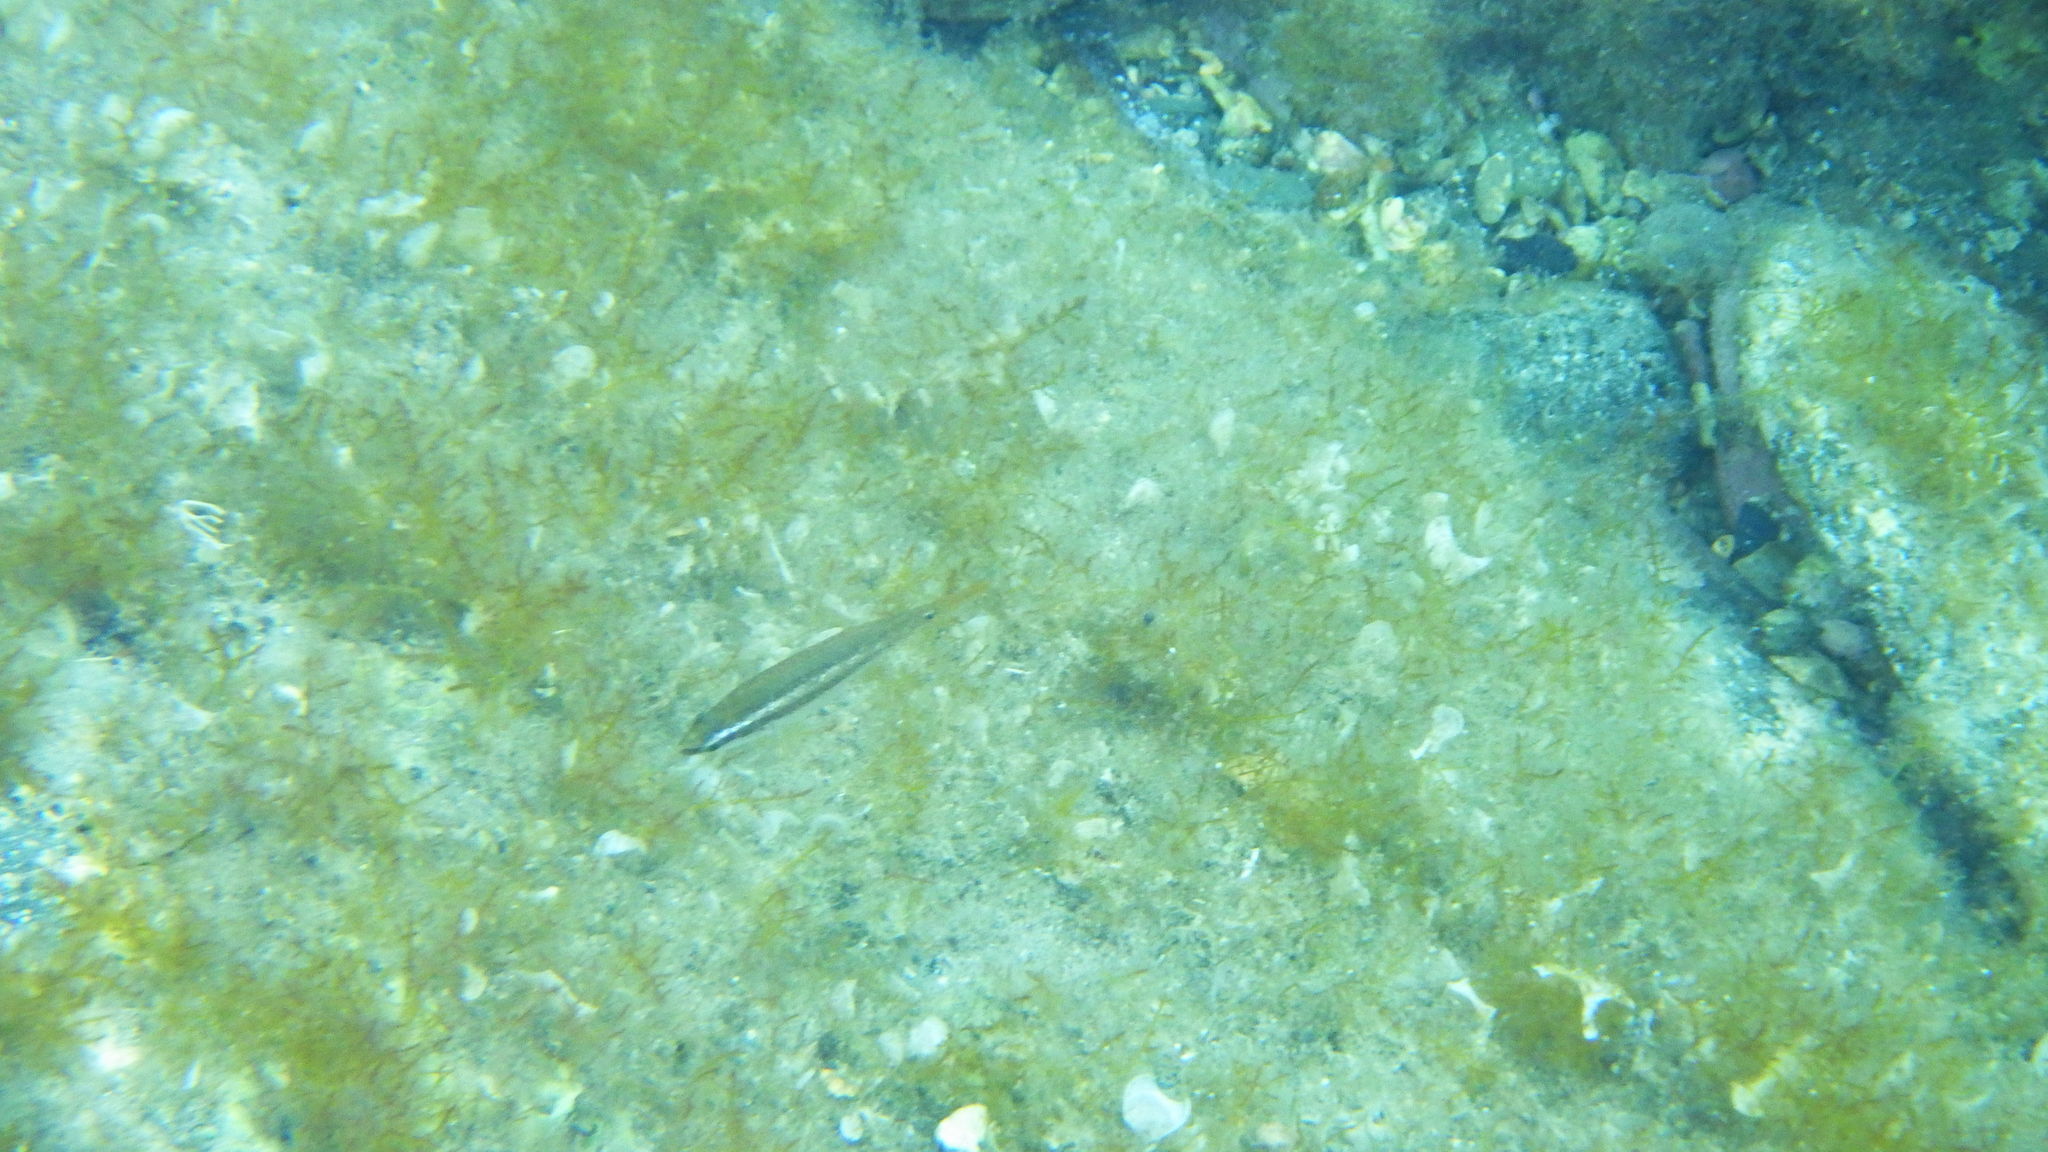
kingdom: Animalia
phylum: Chordata
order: Perciformes
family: Labridae
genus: Symphodus
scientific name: Symphodus ocellatus
